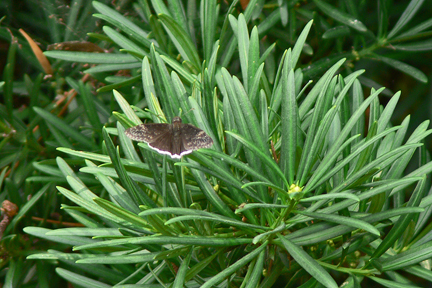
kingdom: Animalia
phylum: Arthropoda
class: Insecta
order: Lepidoptera
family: Hesperiidae
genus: Erynnis
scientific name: Erynnis funeralis
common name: Funereal duskywing
